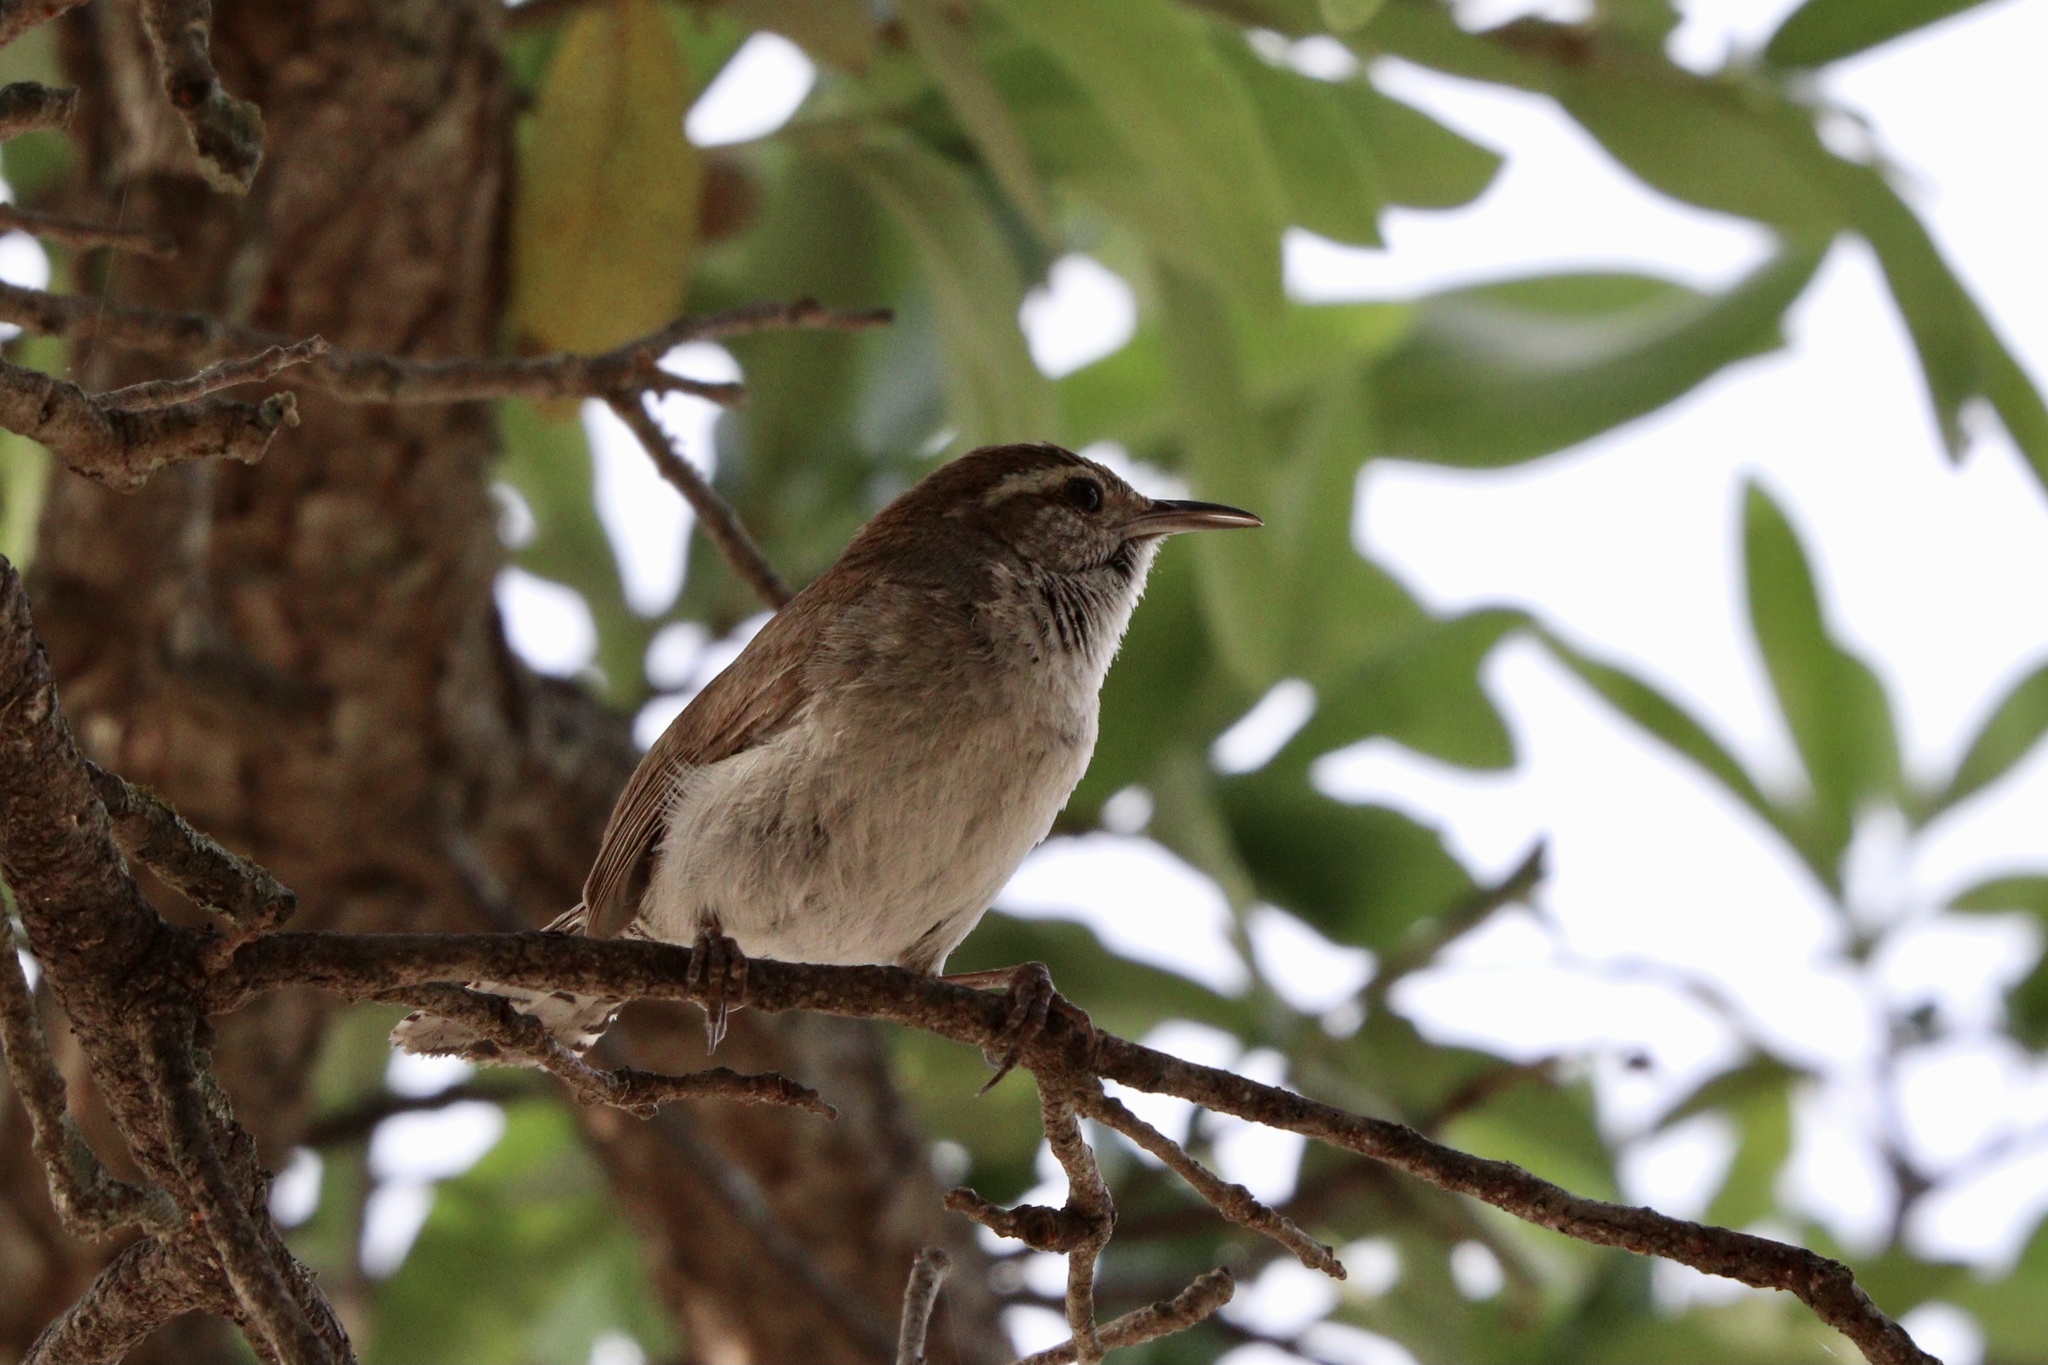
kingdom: Animalia
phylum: Chordata
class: Aves
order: Passeriformes
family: Troglodytidae
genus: Thryomanes
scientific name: Thryomanes bewickii
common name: Bewick's wren
